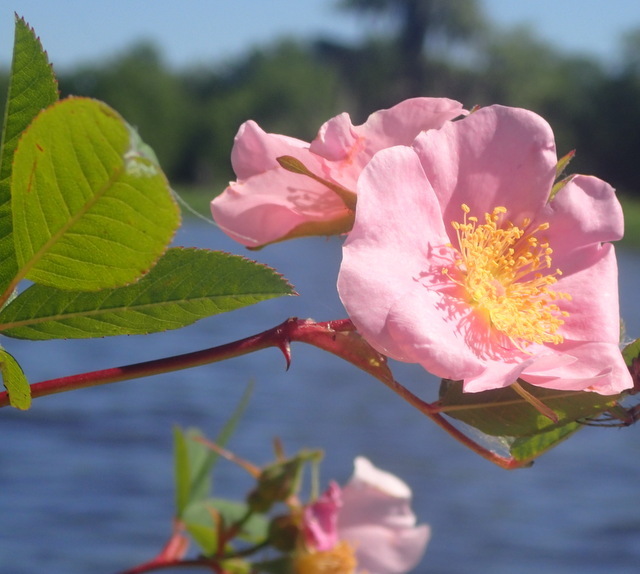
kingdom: Plantae
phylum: Tracheophyta
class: Magnoliopsida
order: Rosales
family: Rosaceae
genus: Rosa
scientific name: Rosa palustris
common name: Swamp rose
